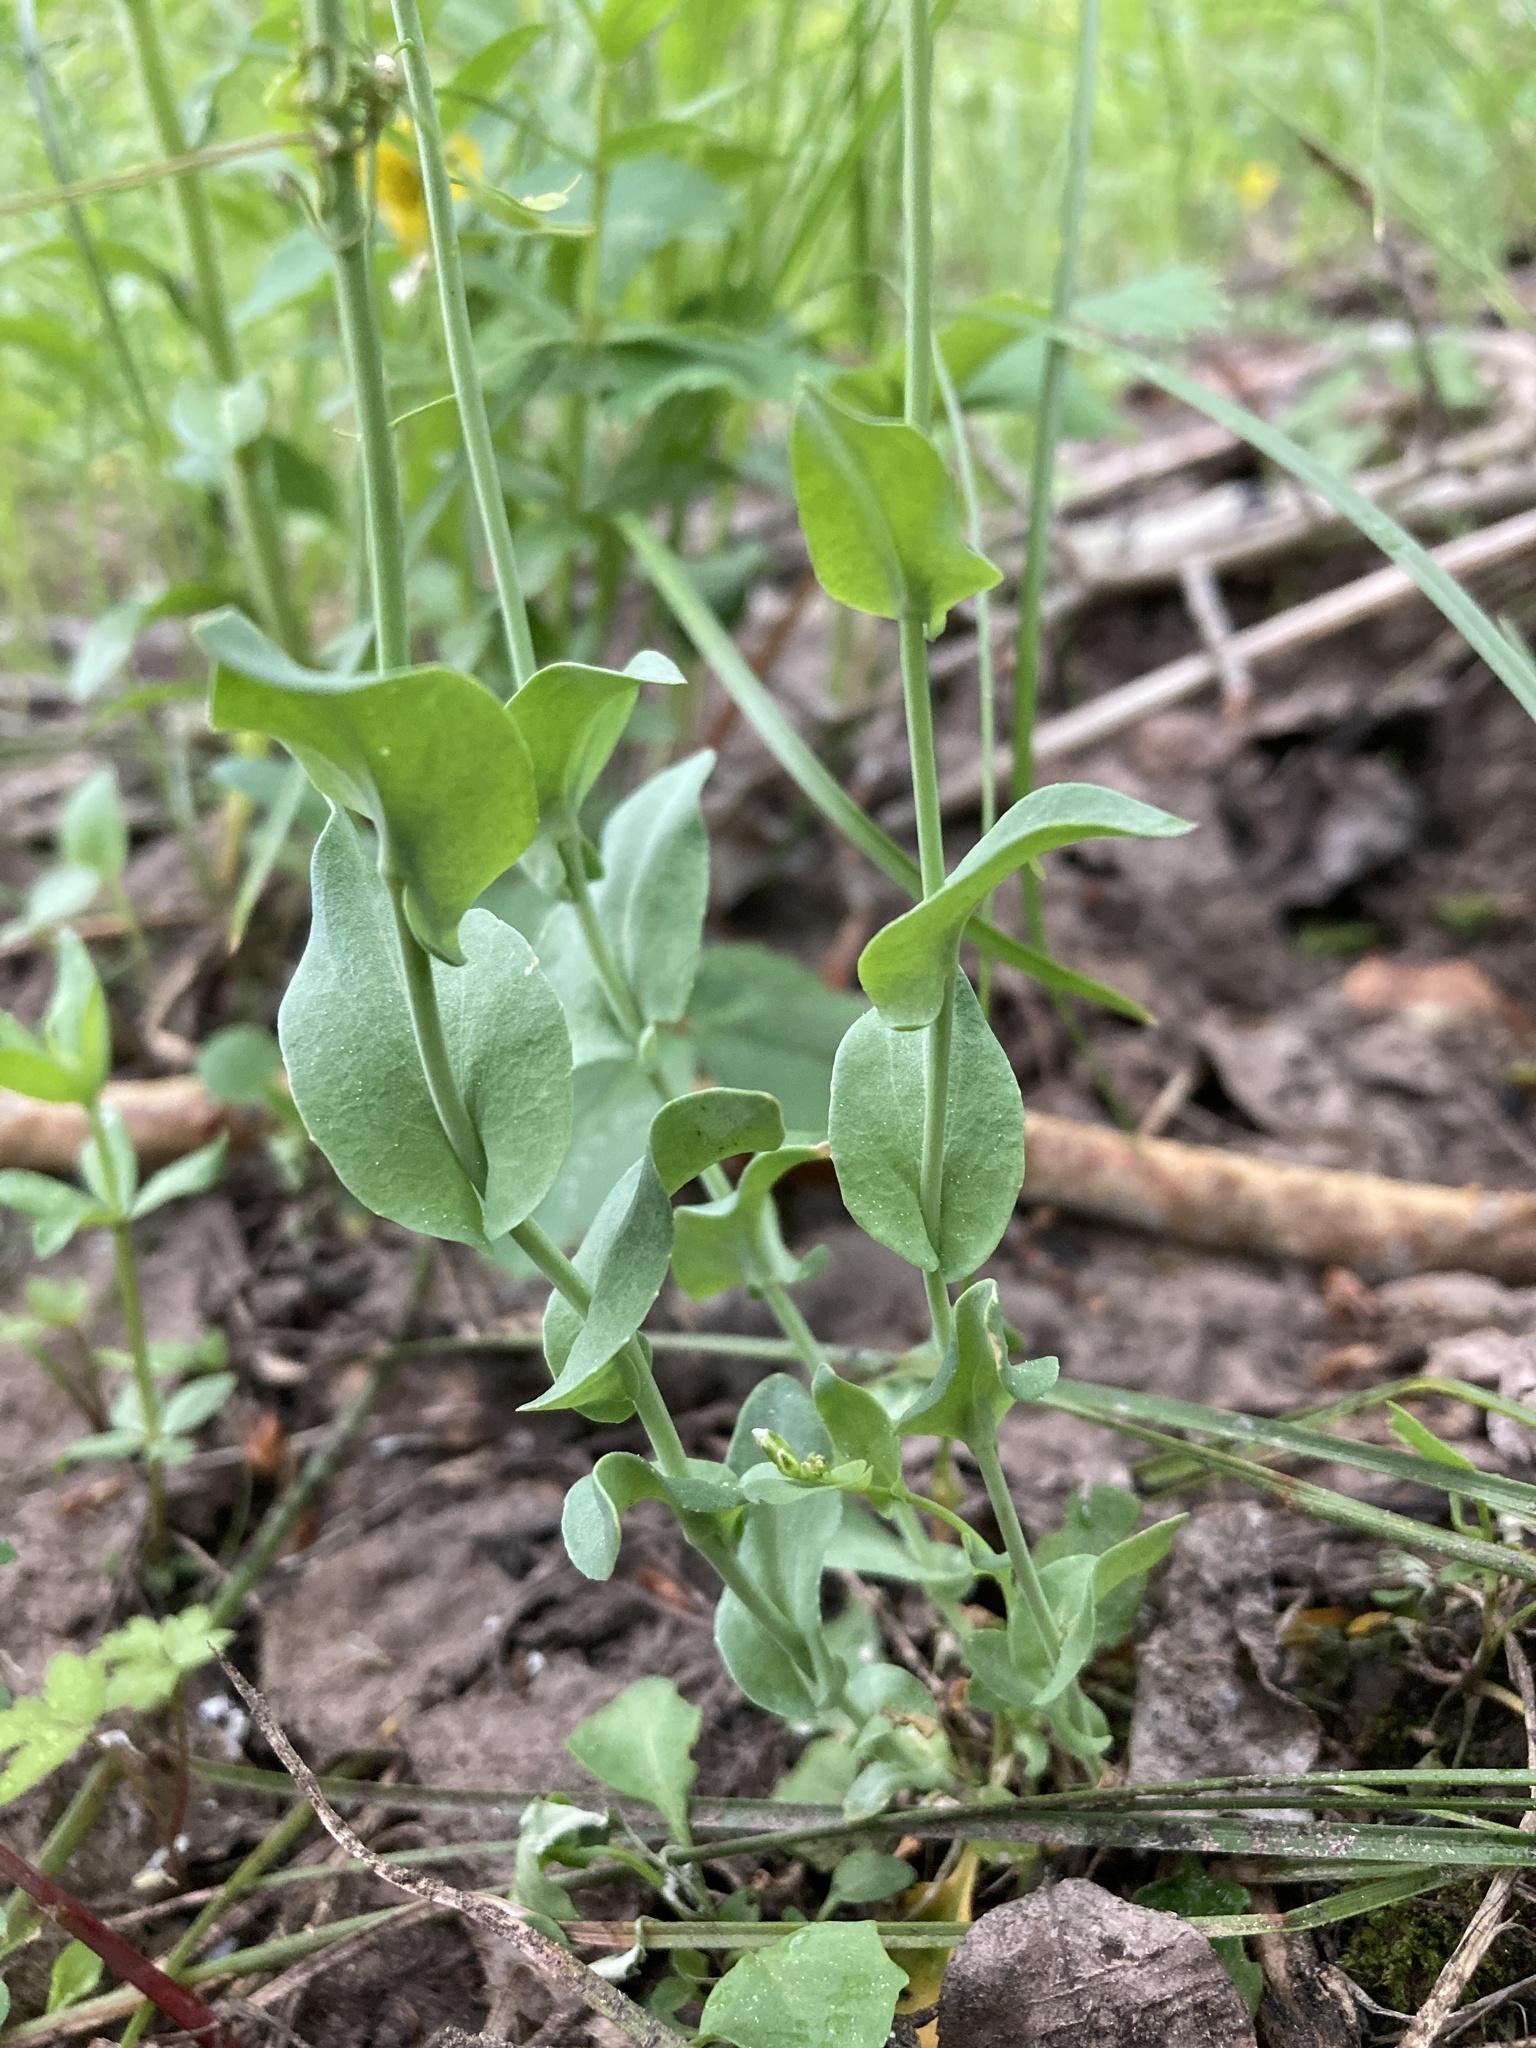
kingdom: Plantae
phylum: Tracheophyta
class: Magnoliopsida
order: Brassicales
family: Brassicaceae
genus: Noccaea
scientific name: Noccaea fendleri
